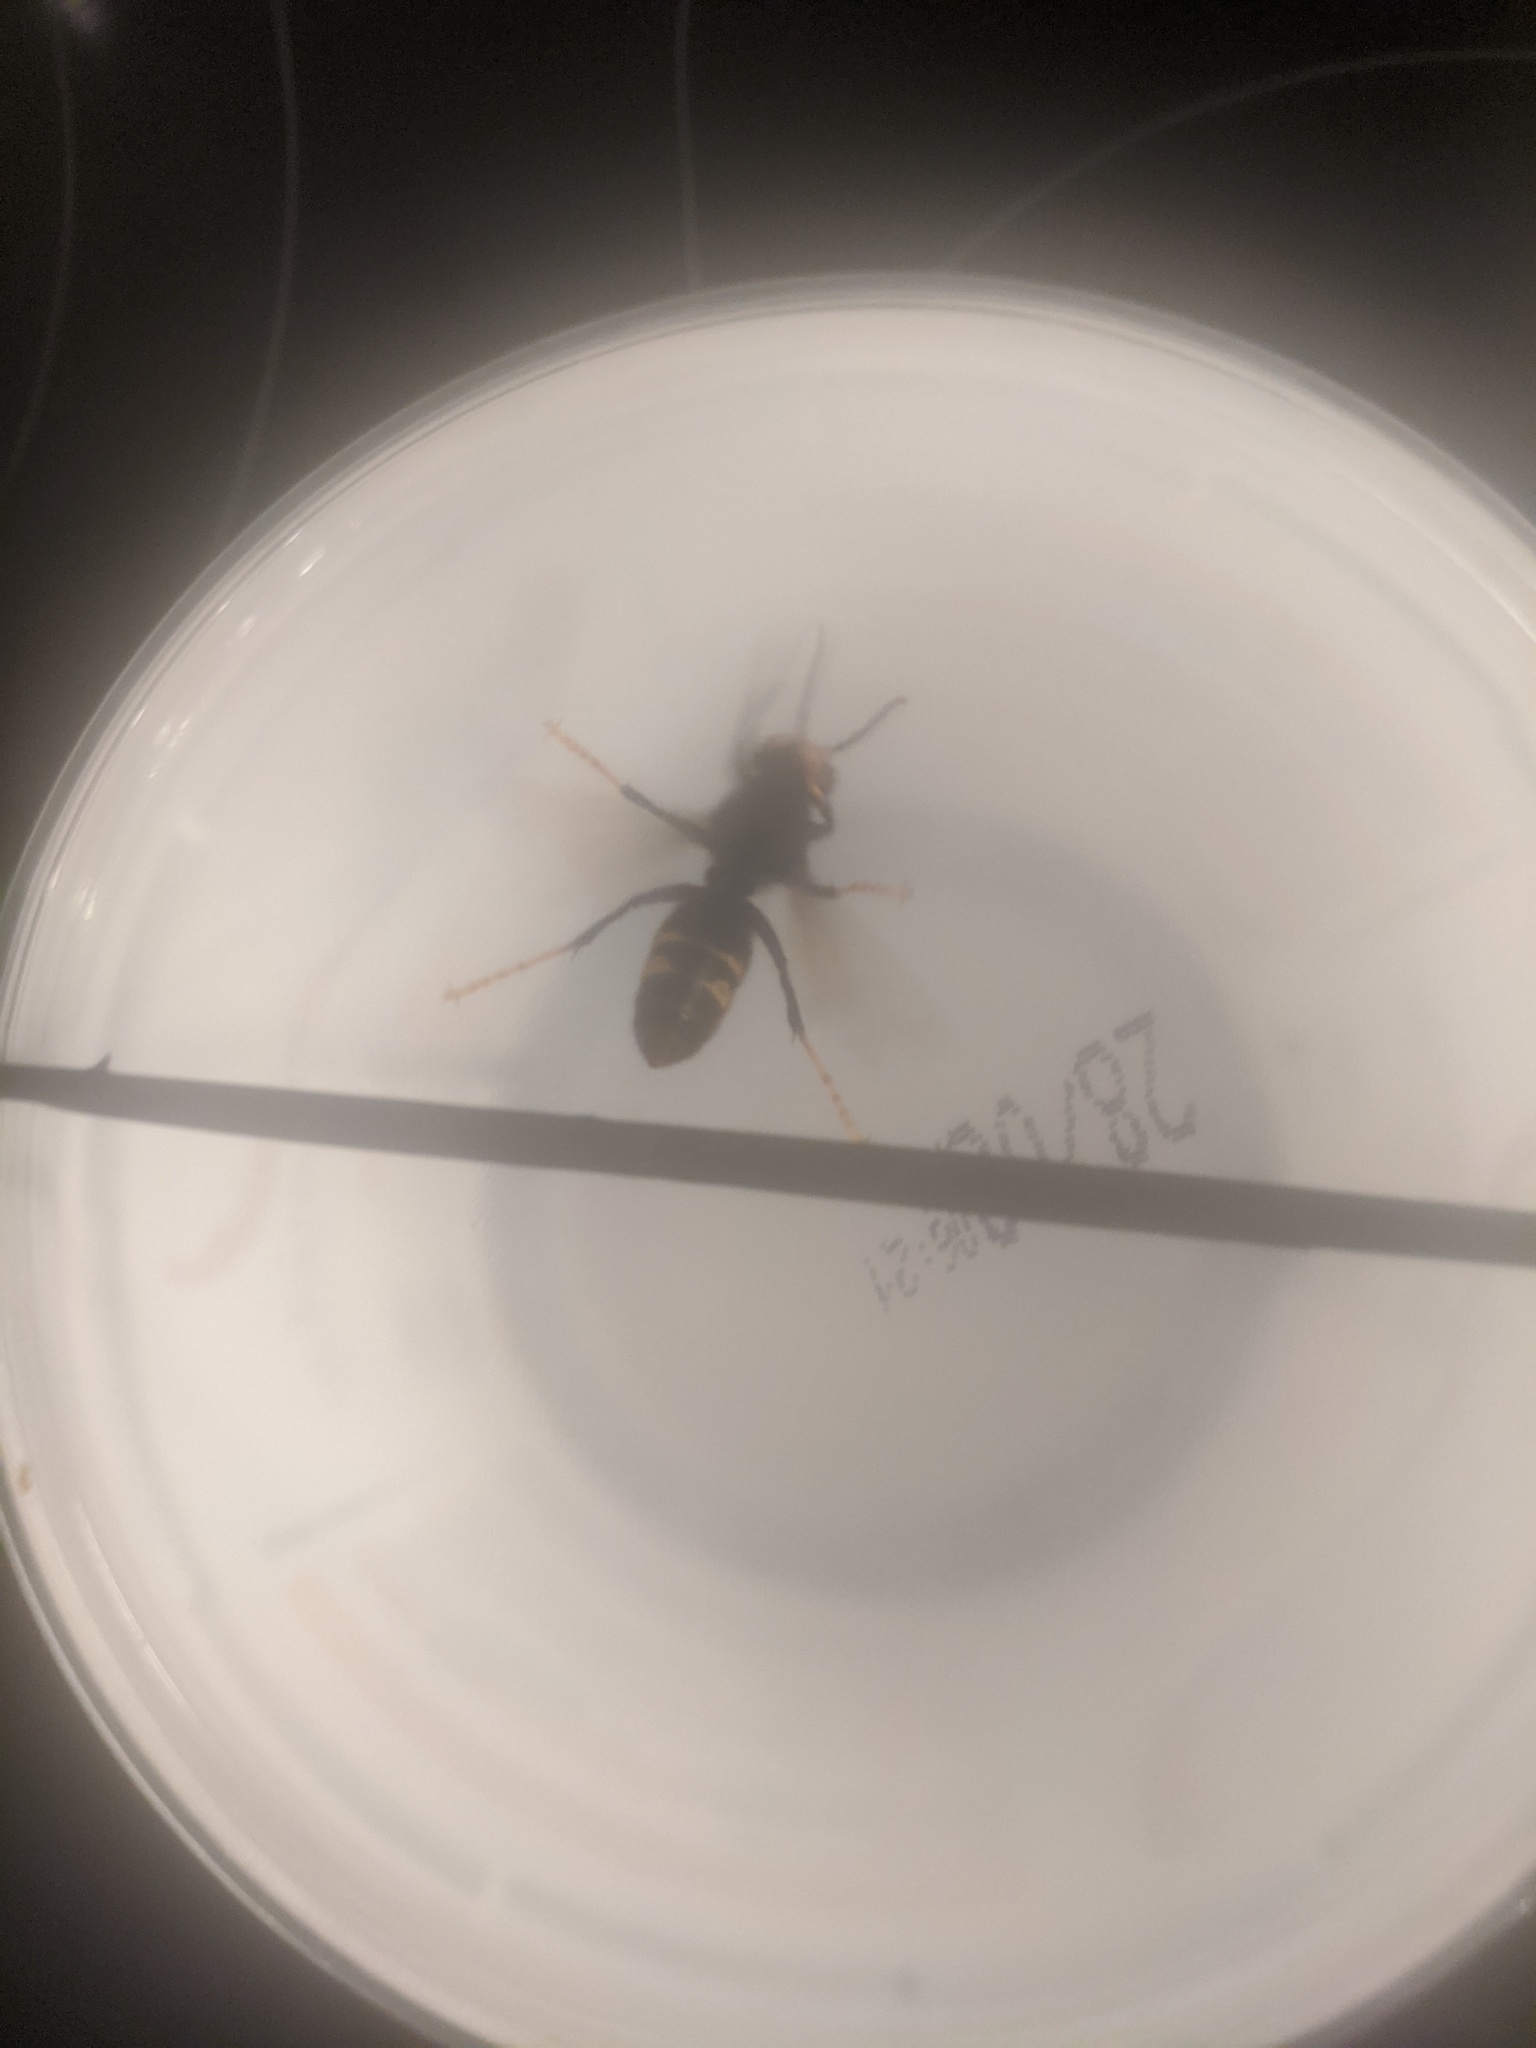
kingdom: Animalia
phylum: Arthropoda
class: Insecta
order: Hymenoptera
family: Vespidae
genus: Vespa
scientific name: Vespa velutina
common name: Asian hornet
